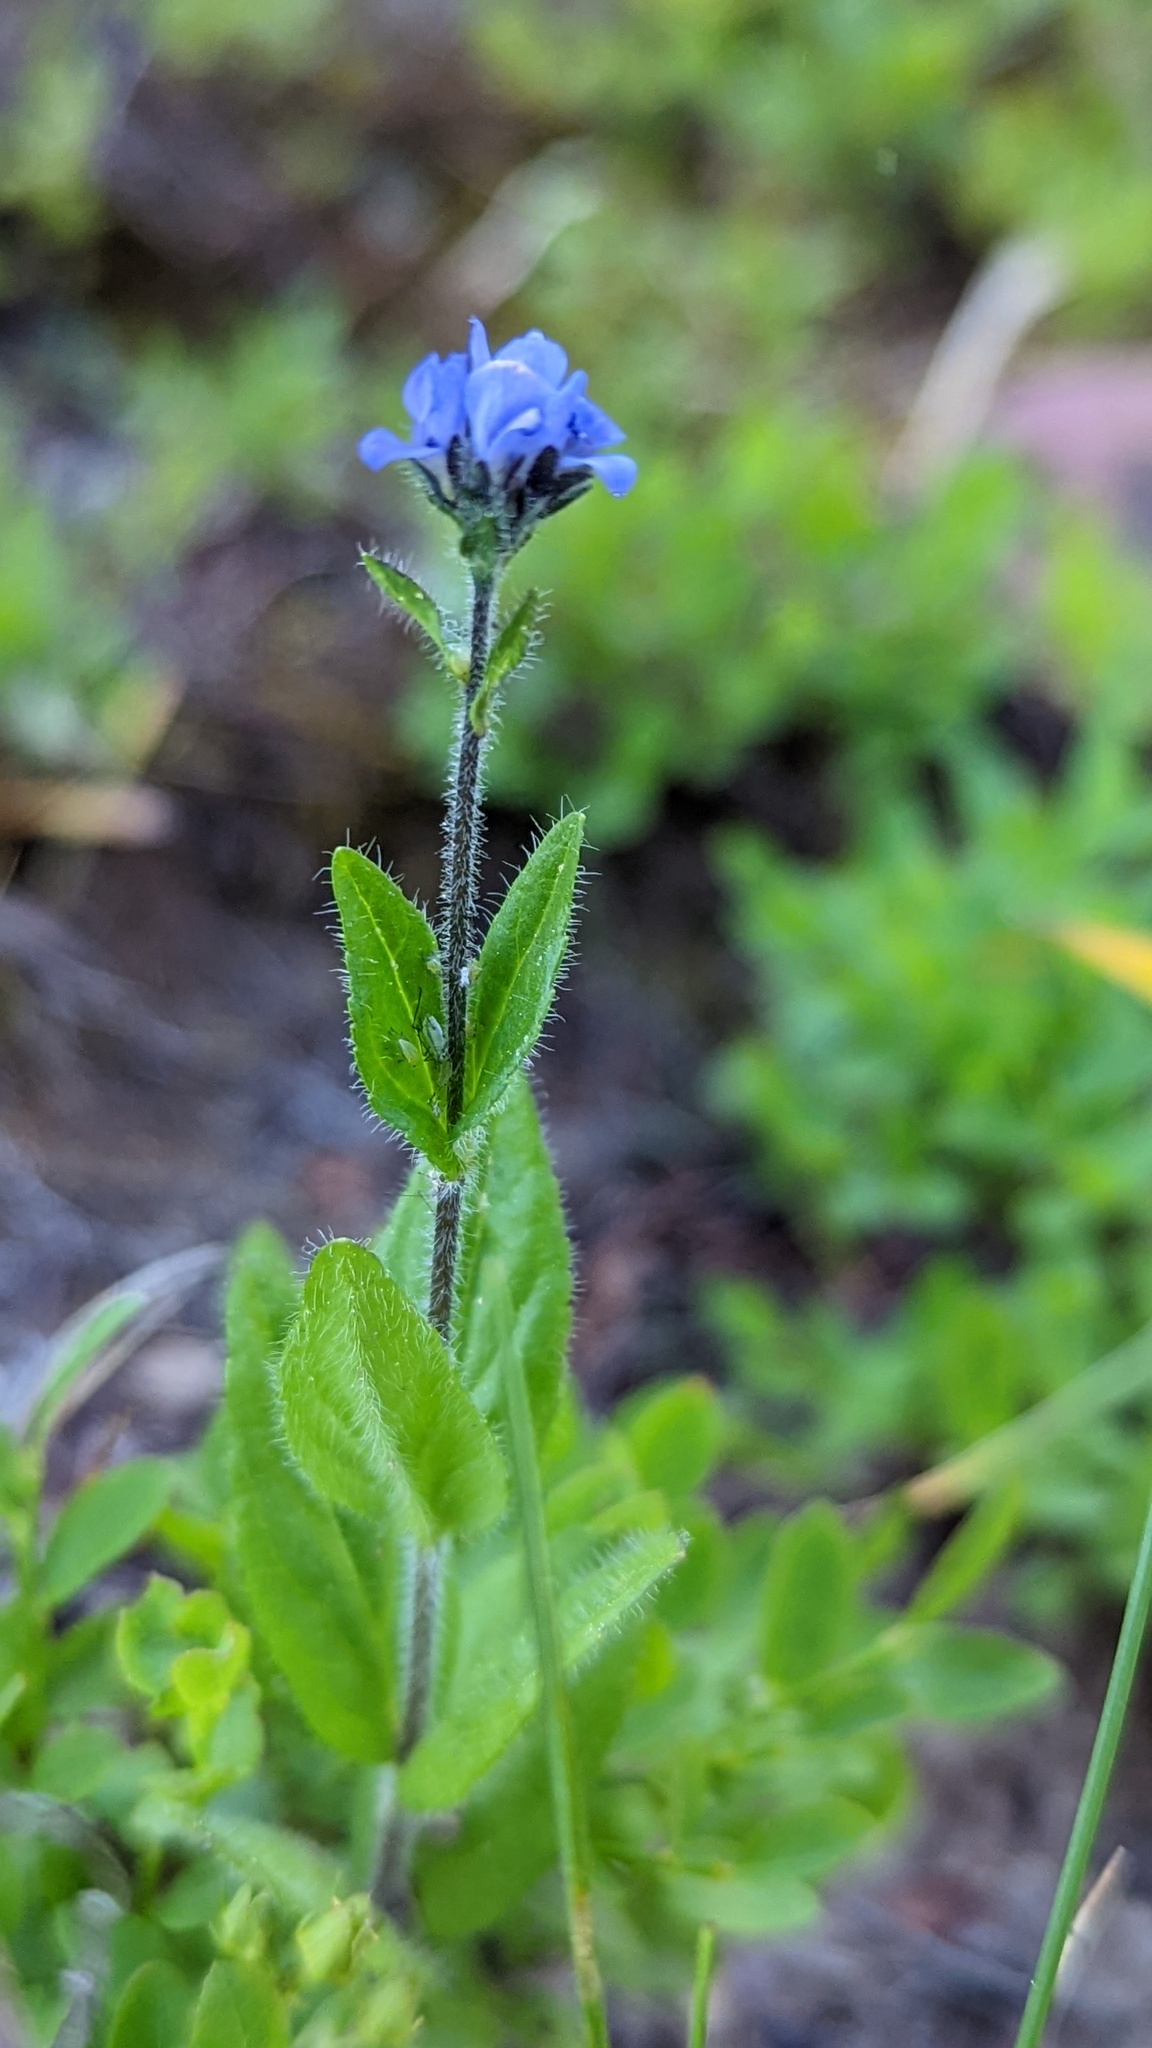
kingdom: Plantae
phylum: Tracheophyta
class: Magnoliopsida
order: Lamiales
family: Plantaginaceae
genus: Veronica
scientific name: Veronica wormskjoldii
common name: American alpine speedwell
